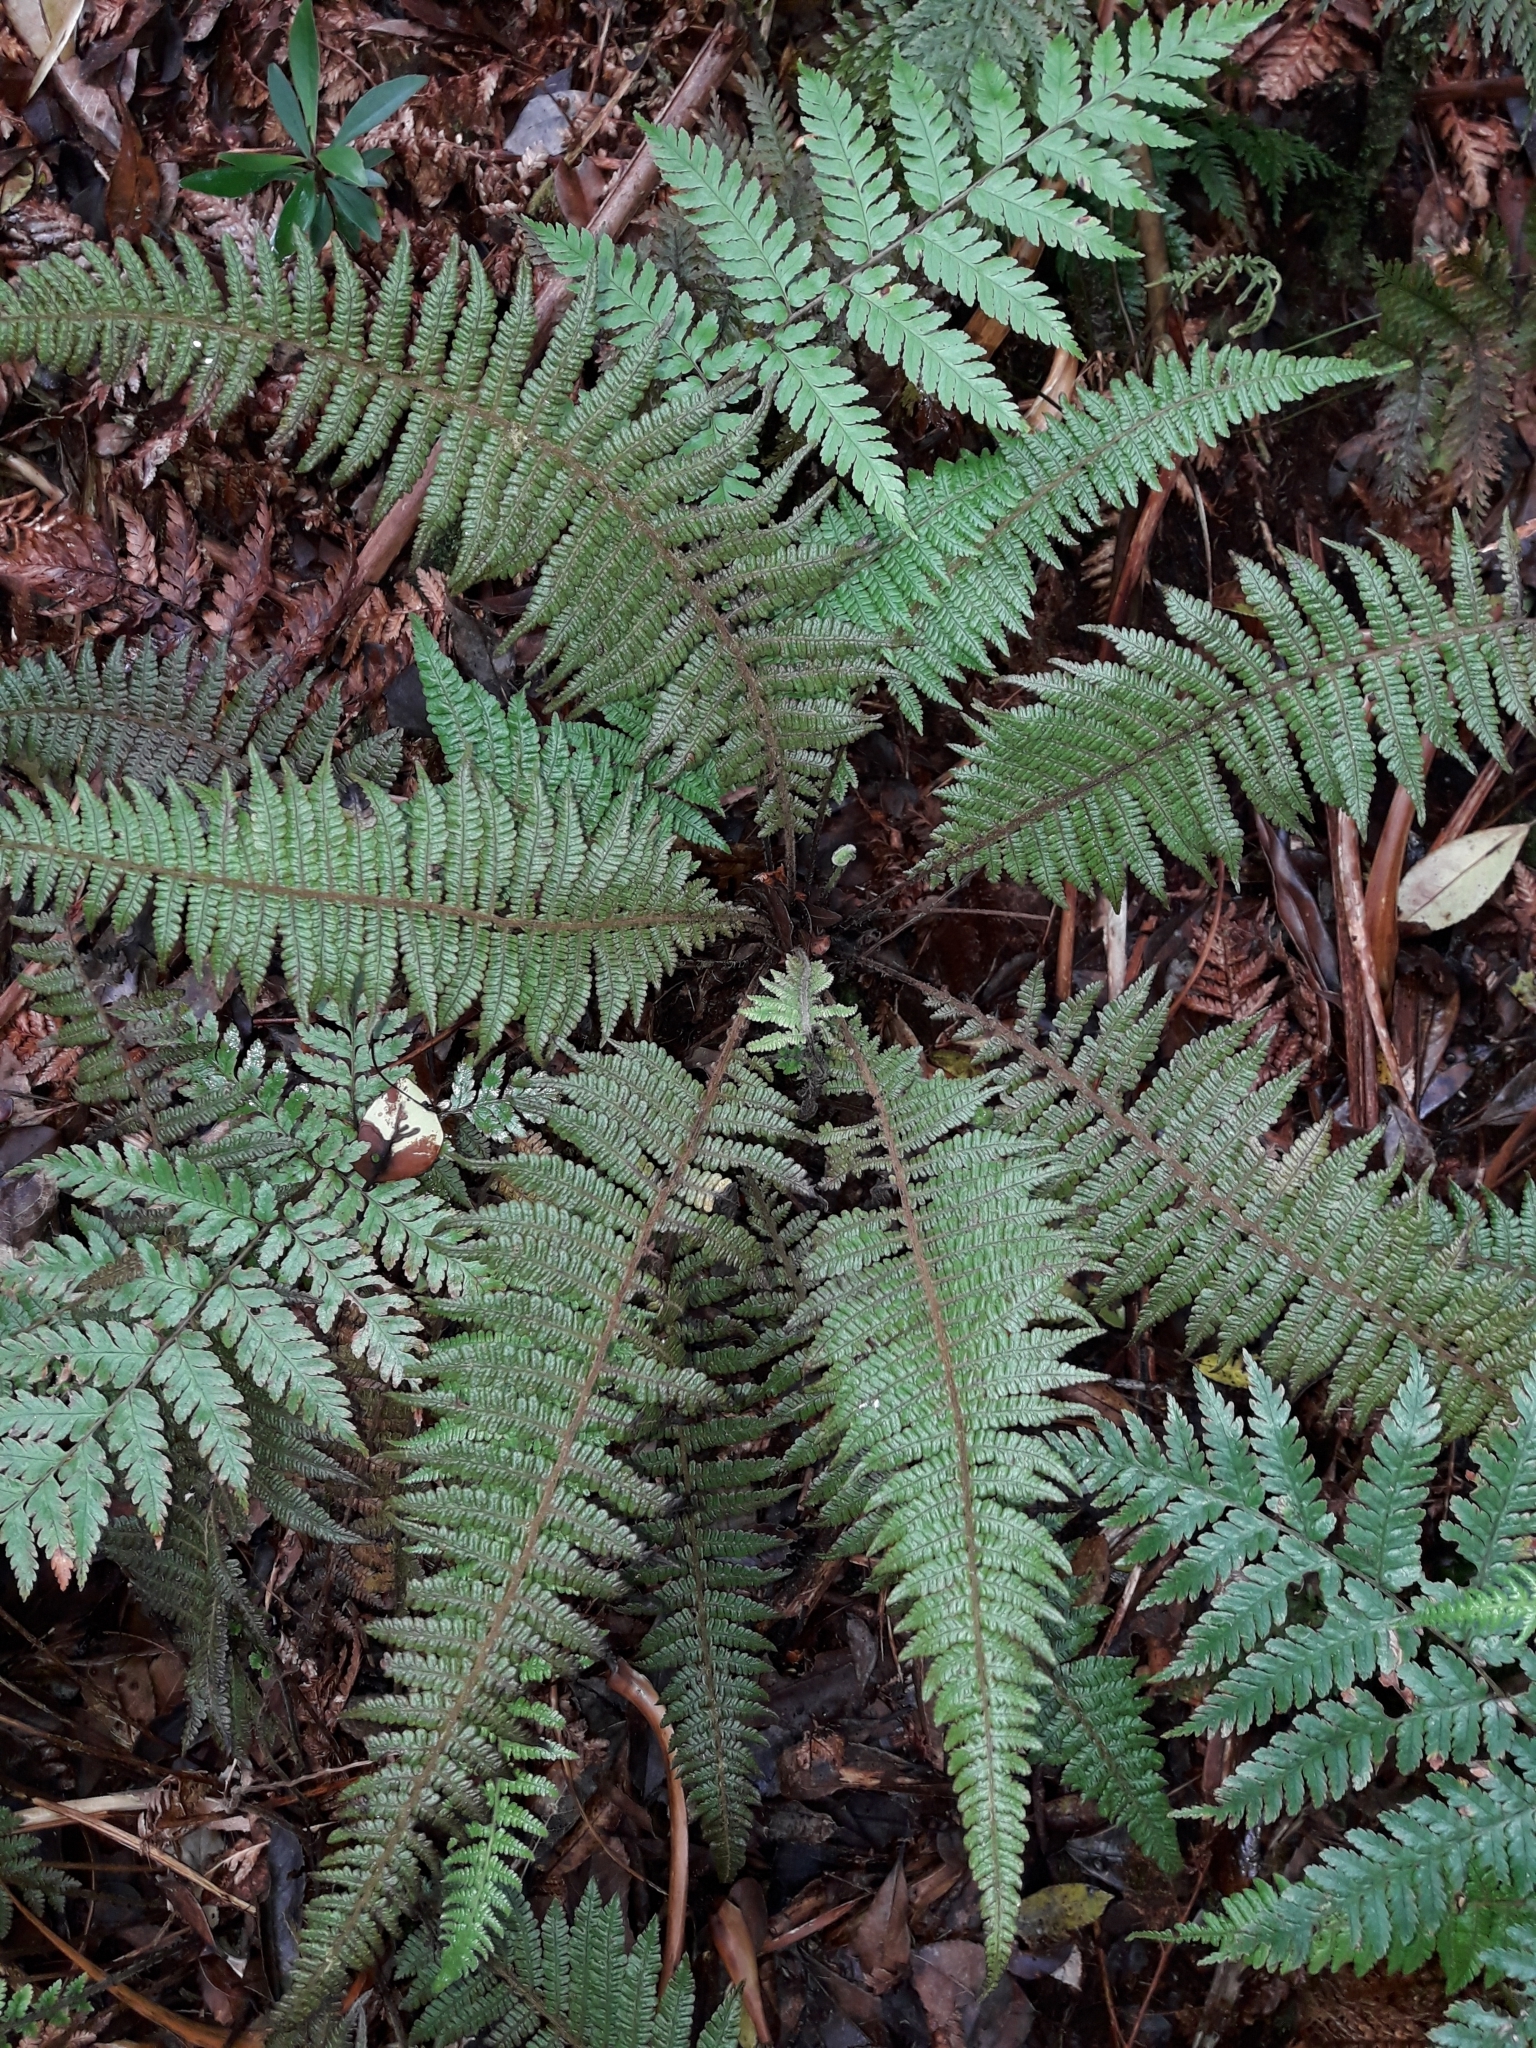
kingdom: Plantae
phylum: Tracheophyta
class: Polypodiopsida
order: Polypodiales
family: Thelypteridaceae
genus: Coryphopteris
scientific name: Coryphopteris fasciculata
